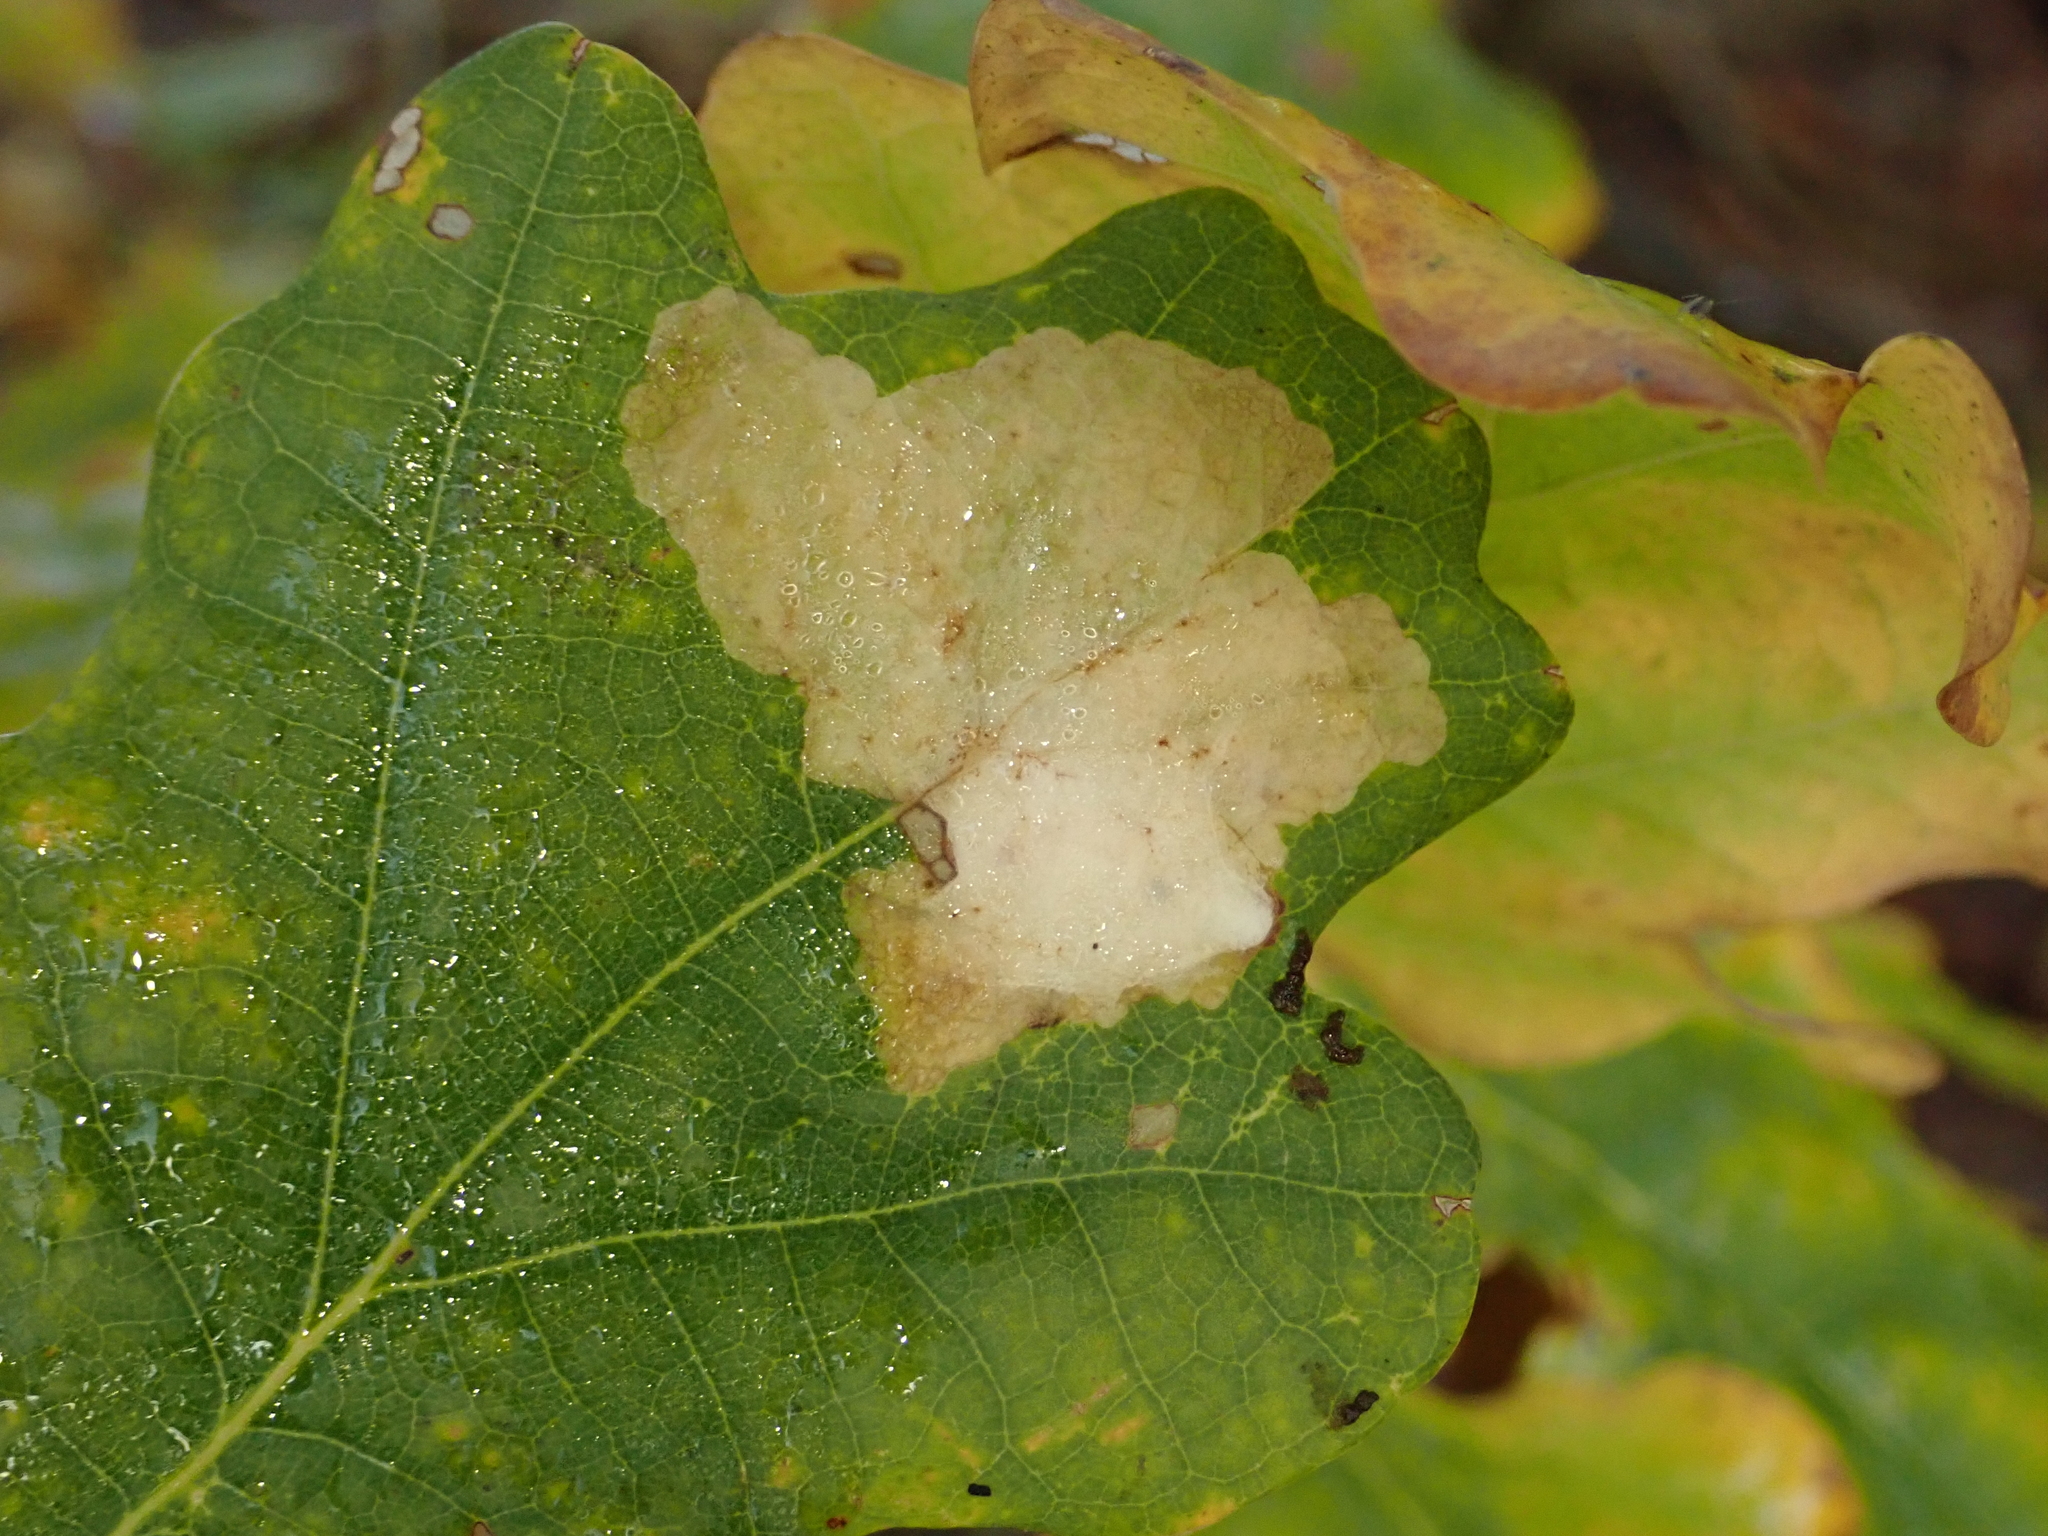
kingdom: Animalia
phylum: Arthropoda
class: Insecta
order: Lepidoptera
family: Tischeriidae
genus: Tischeria
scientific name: Tischeria ekebladella
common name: Oak carl
